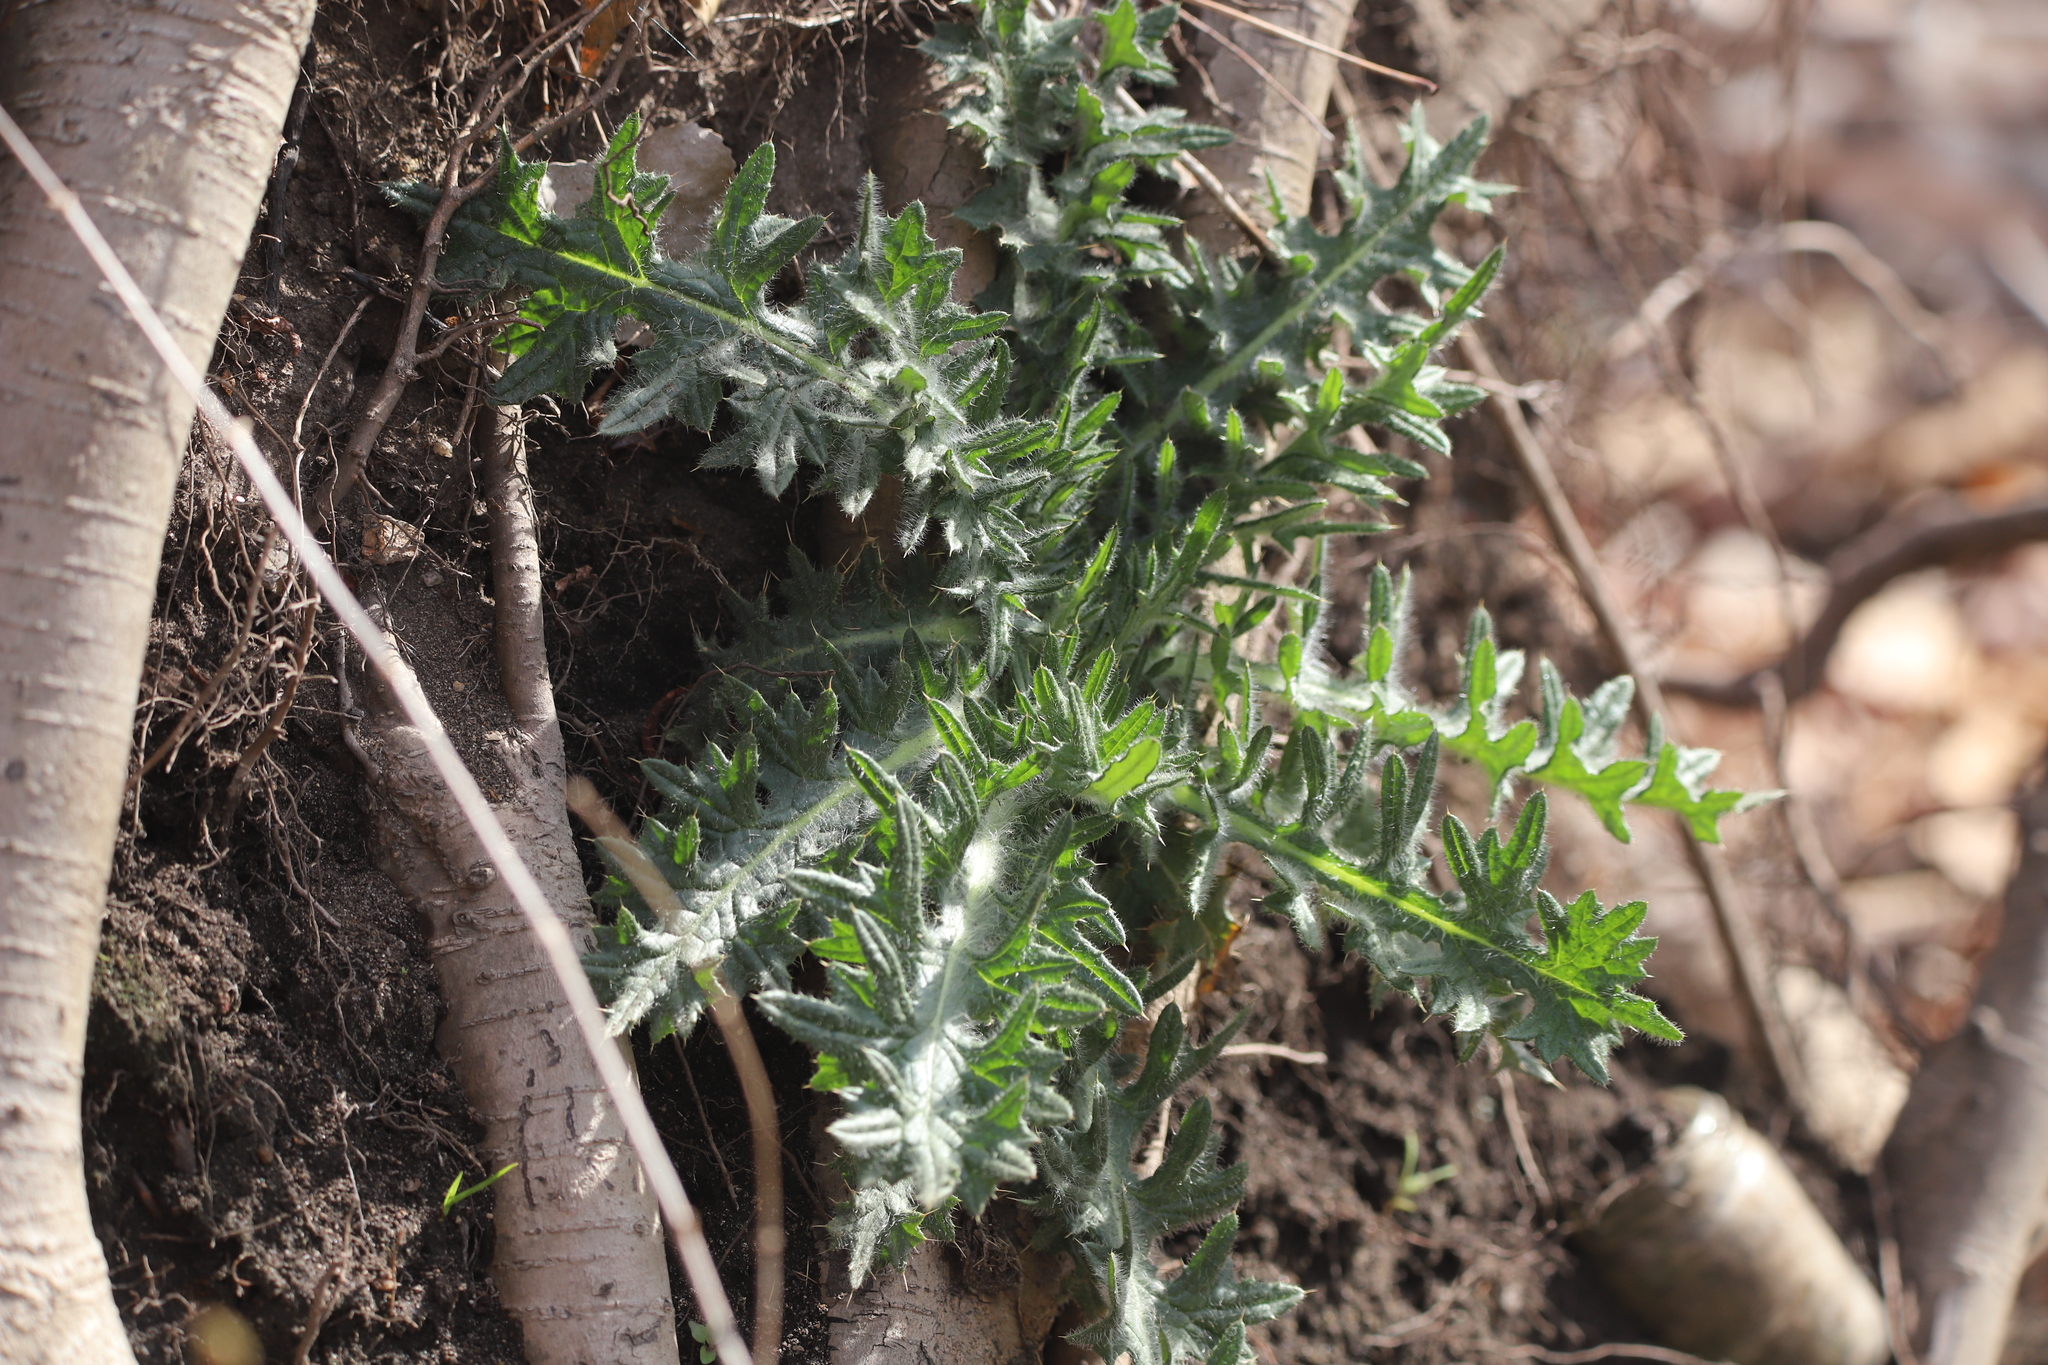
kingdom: Plantae
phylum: Tracheophyta
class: Magnoliopsida
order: Asterales
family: Asteraceae
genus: Cirsium
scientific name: Cirsium vulgare
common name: Bull thistle
